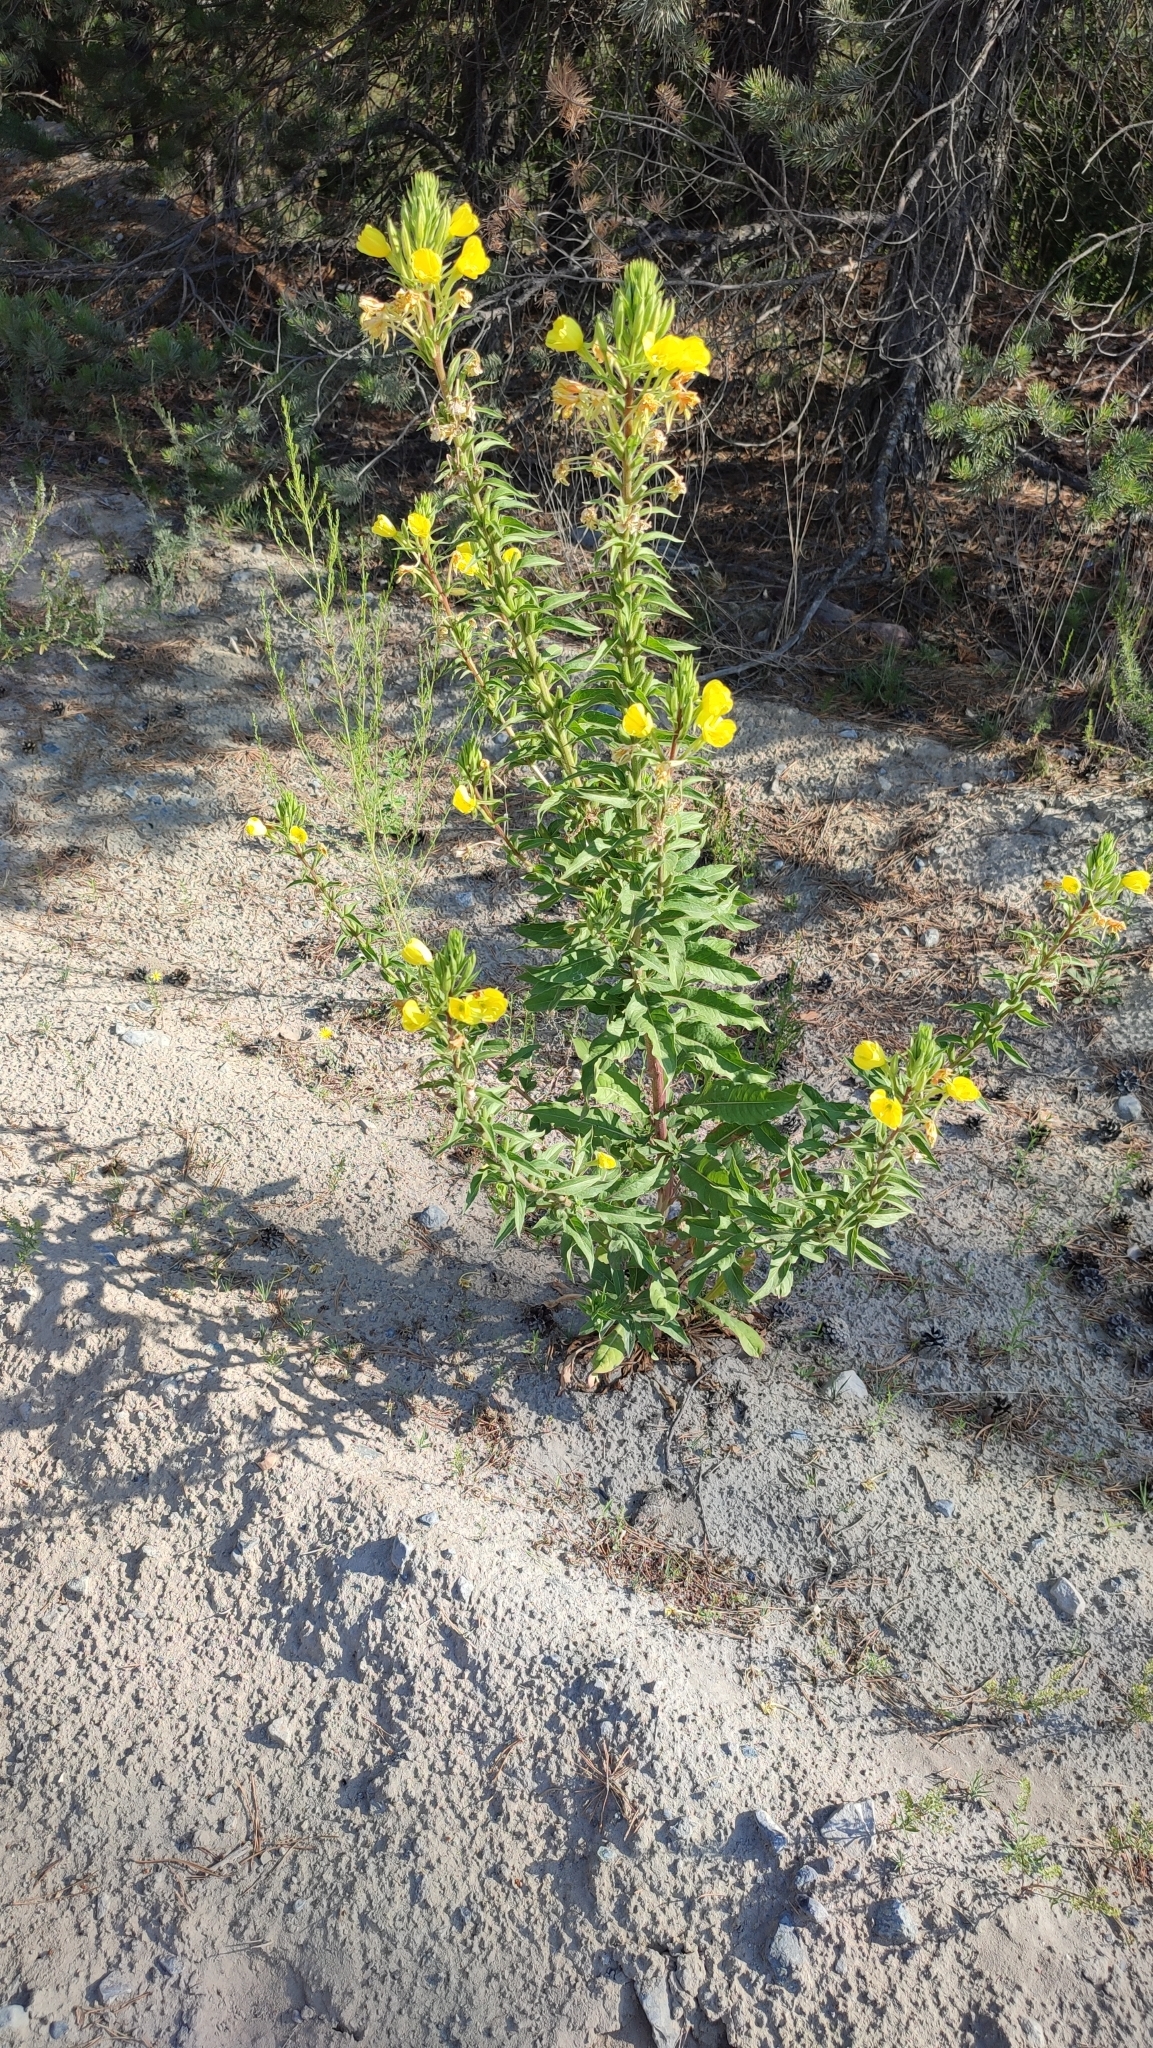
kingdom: Plantae
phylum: Tracheophyta
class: Magnoliopsida
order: Myrtales
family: Onagraceae
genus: Oenothera
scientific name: Oenothera rubricaulis
